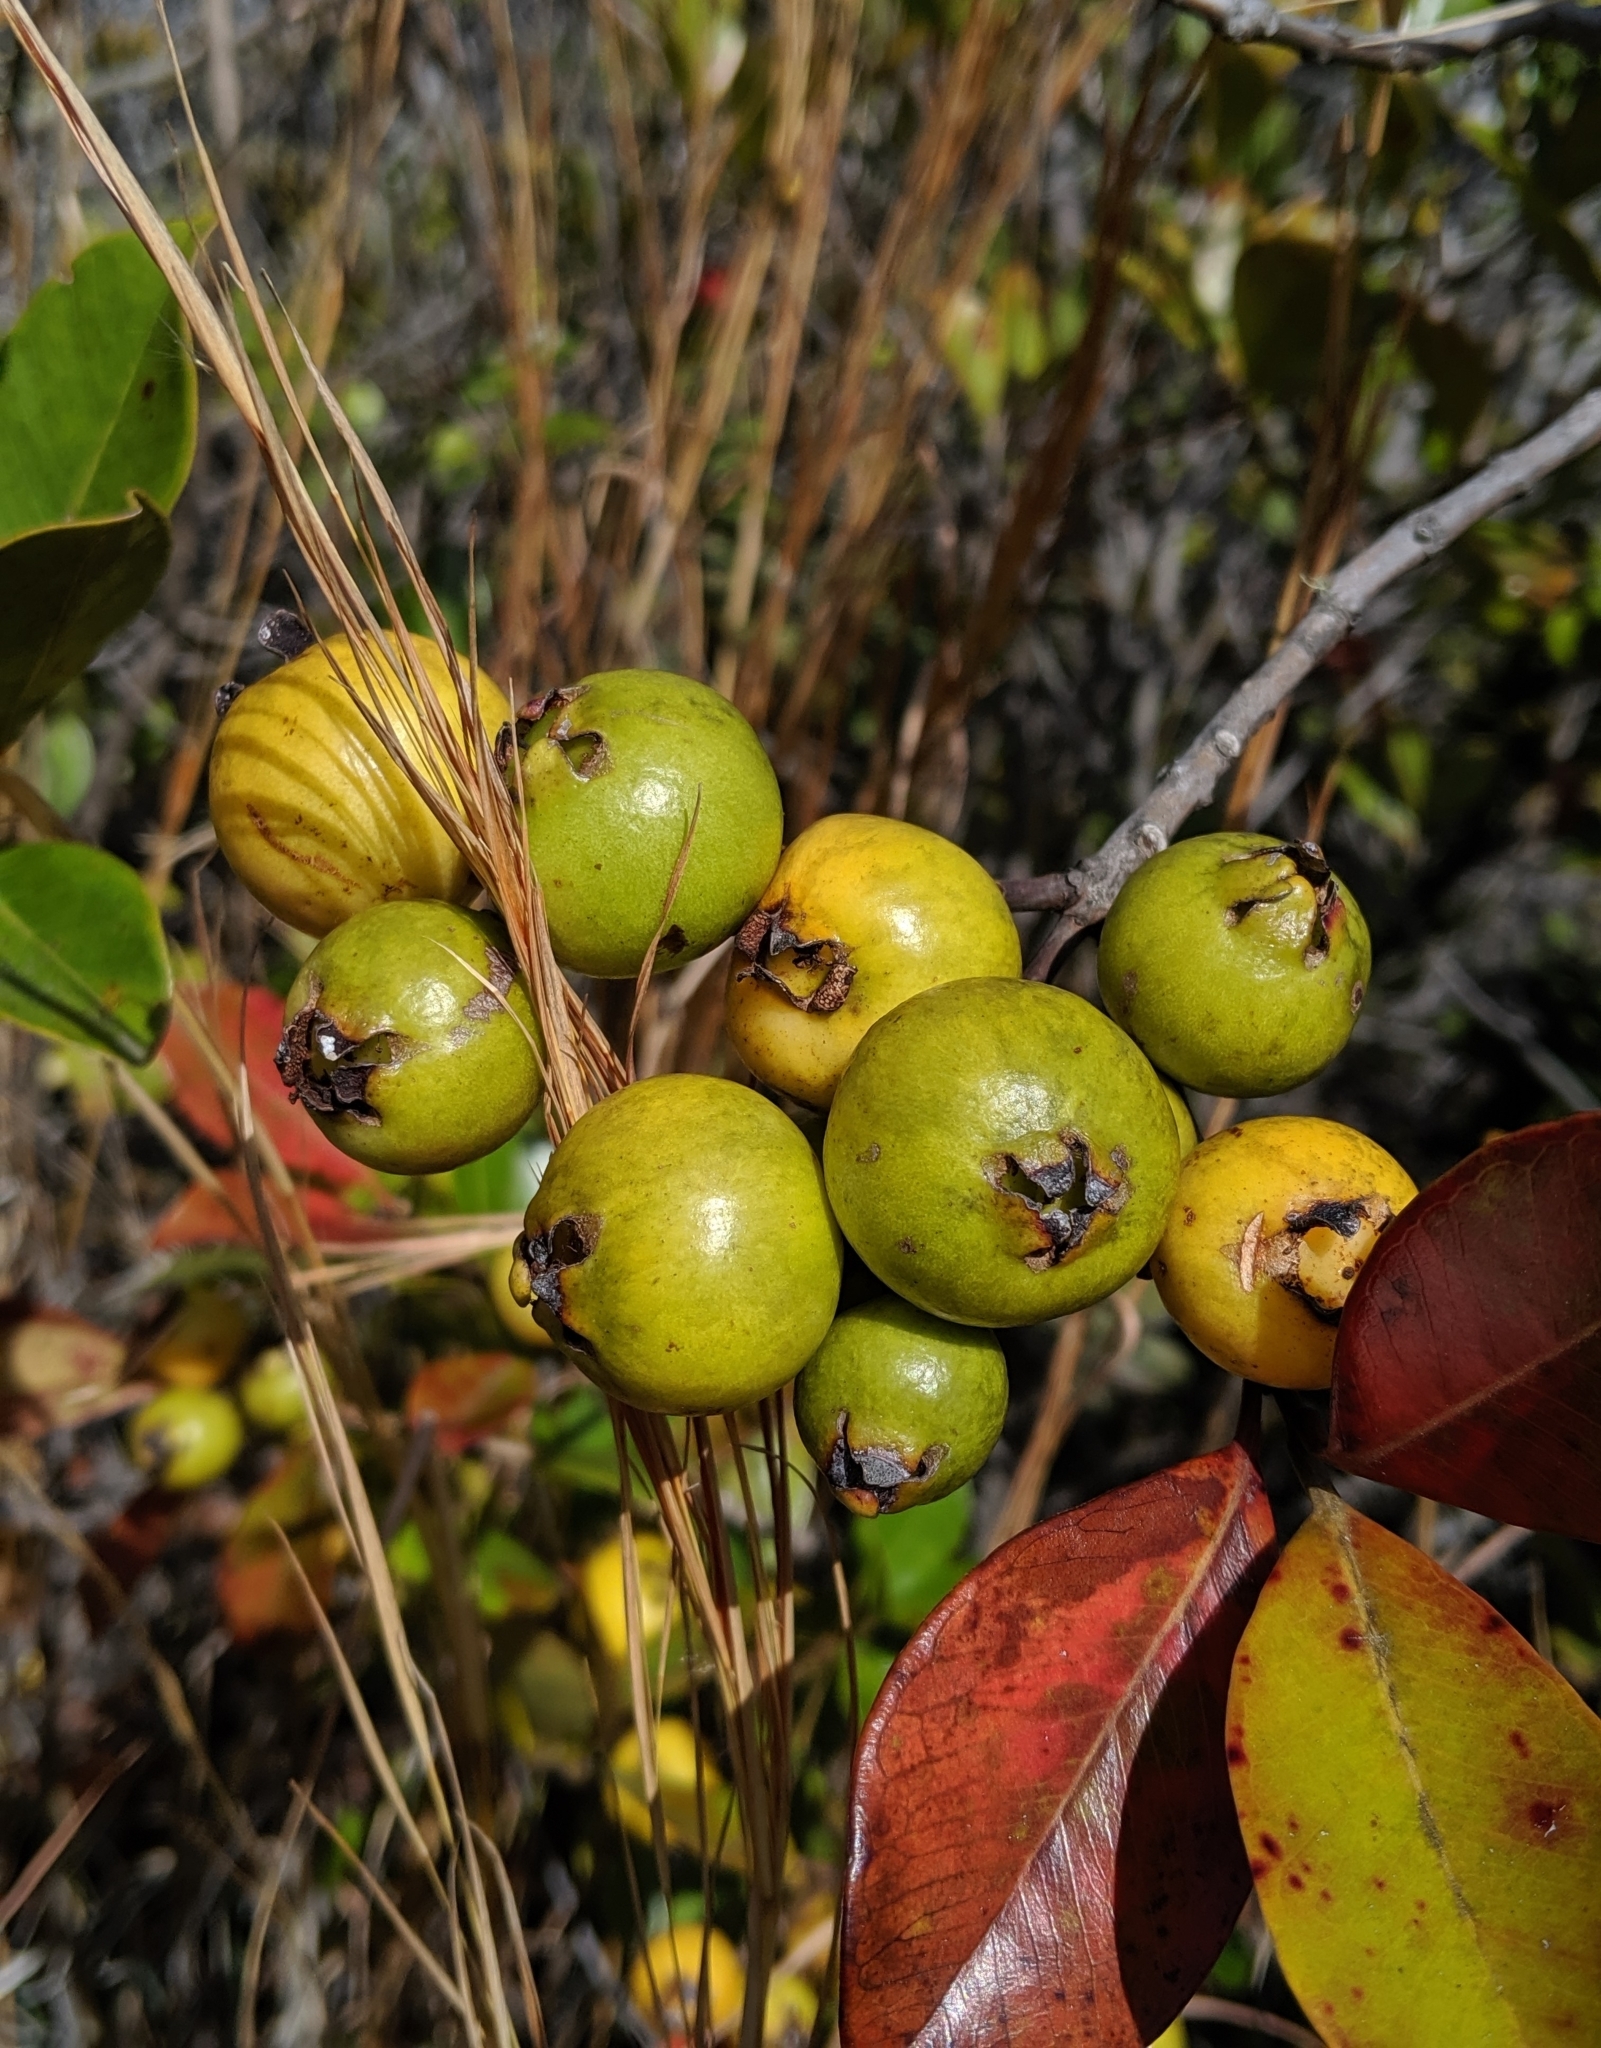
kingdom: Plantae
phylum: Tracheophyta
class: Magnoliopsida
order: Myrtales
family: Myrtaceae
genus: Psidium
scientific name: Psidium cattleianum
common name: Strawberry guava
